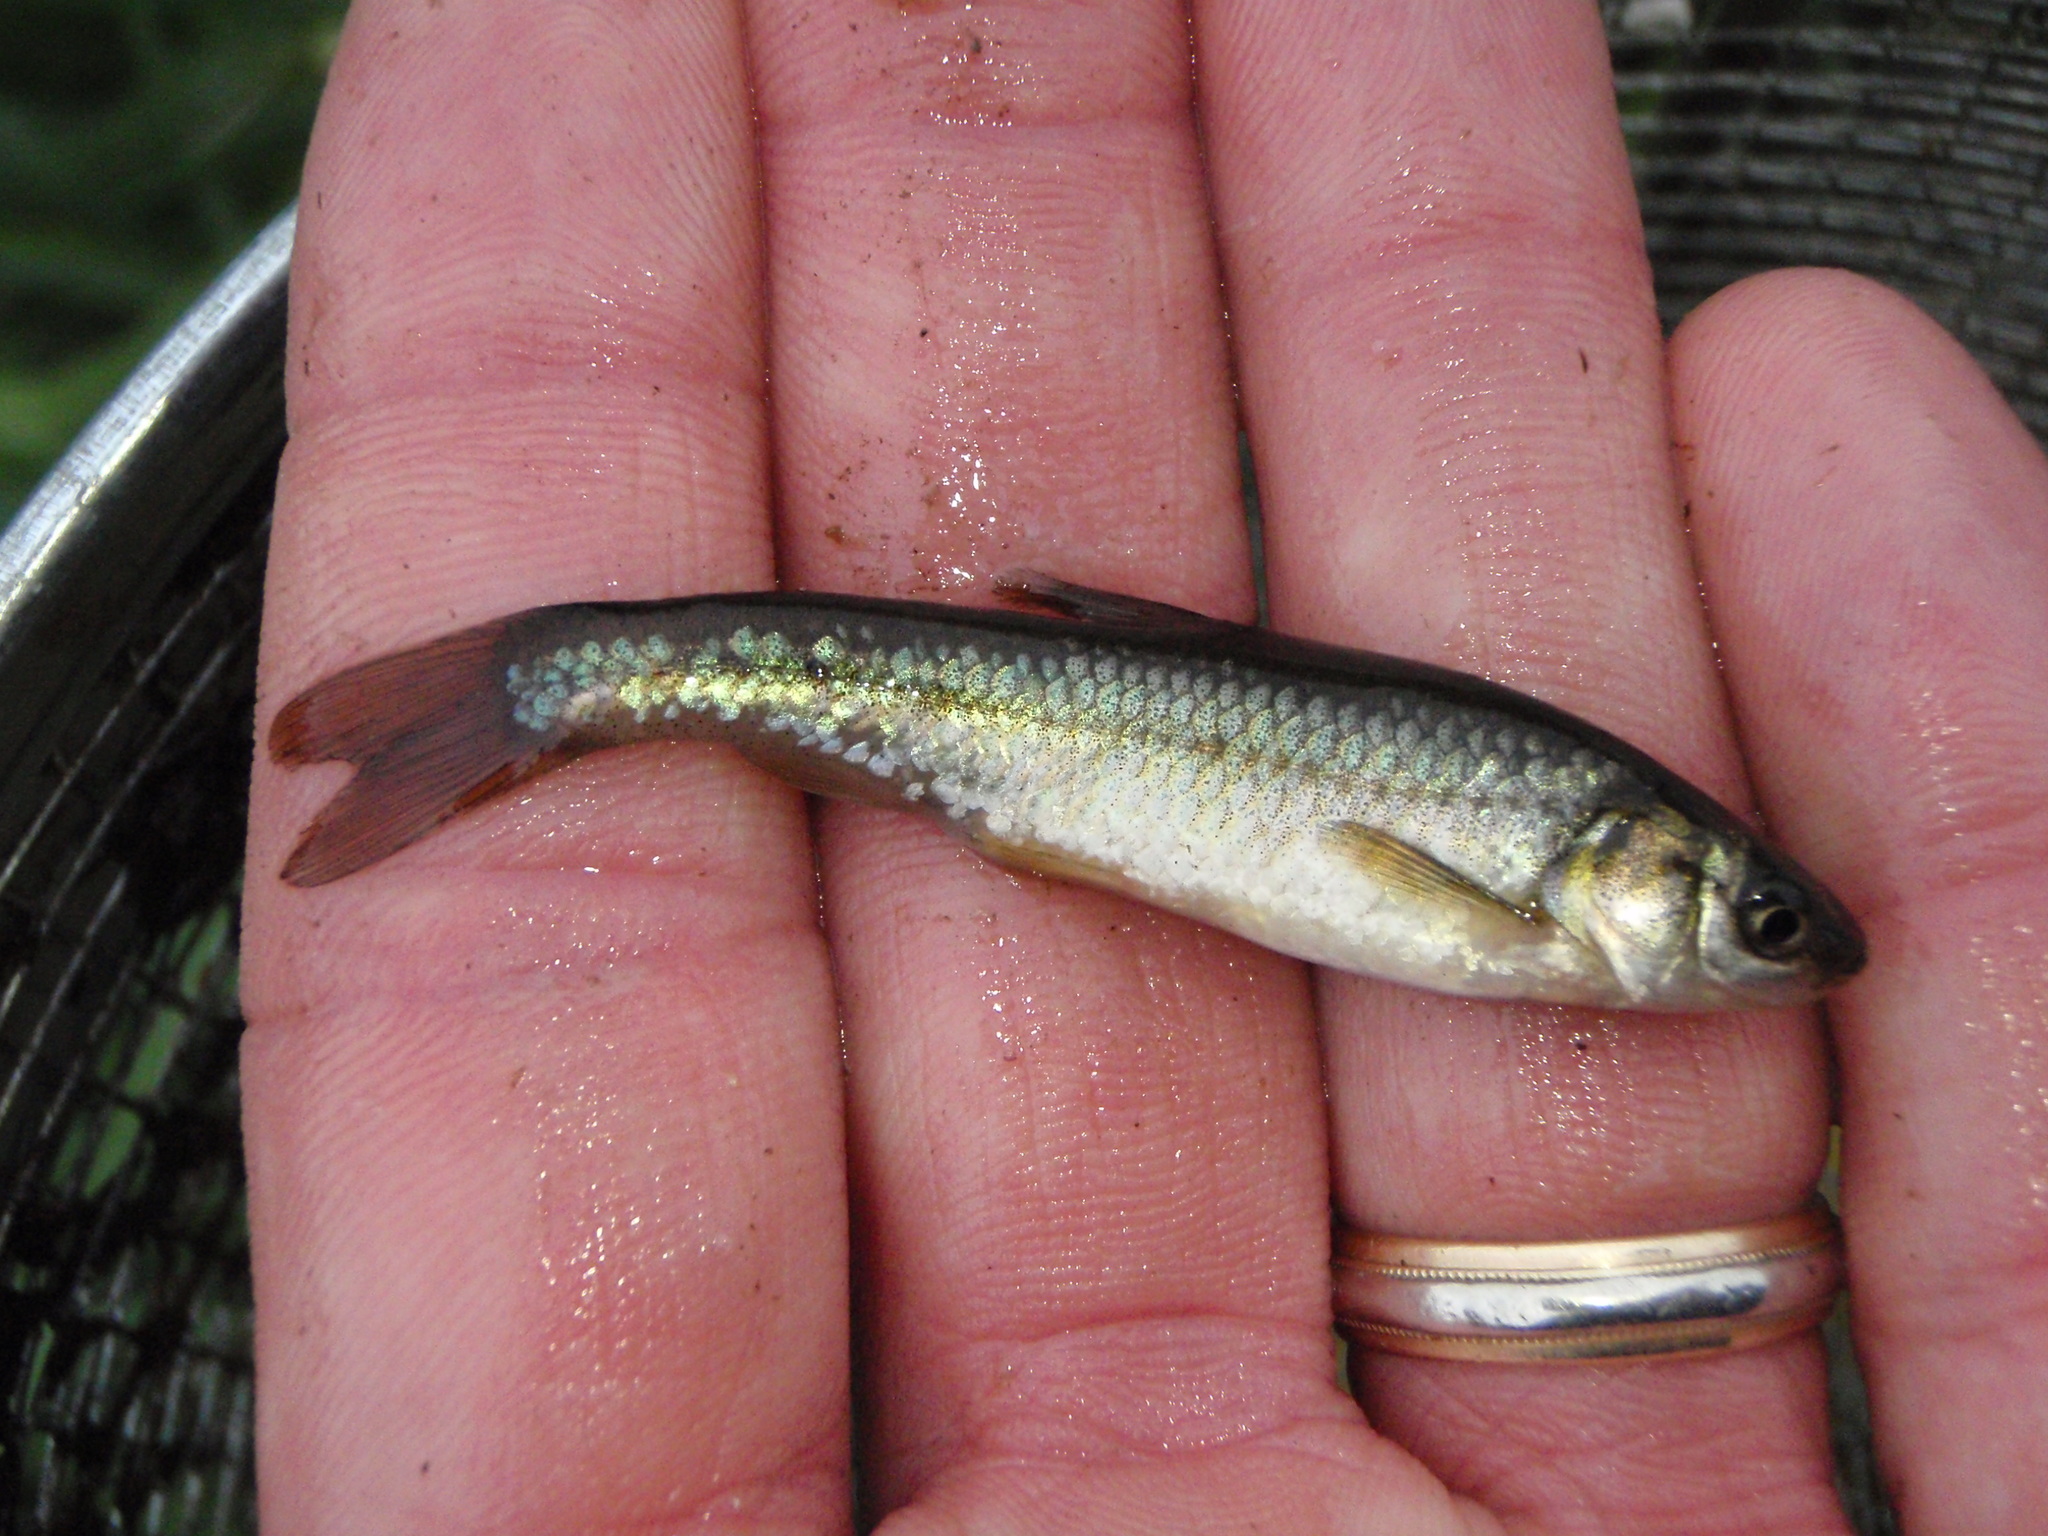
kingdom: Animalia
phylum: Chordata
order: Cypriniformes
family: Cyprinidae
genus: Hybognathus
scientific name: Hybognathus hankinsoni
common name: Brassy minnow
